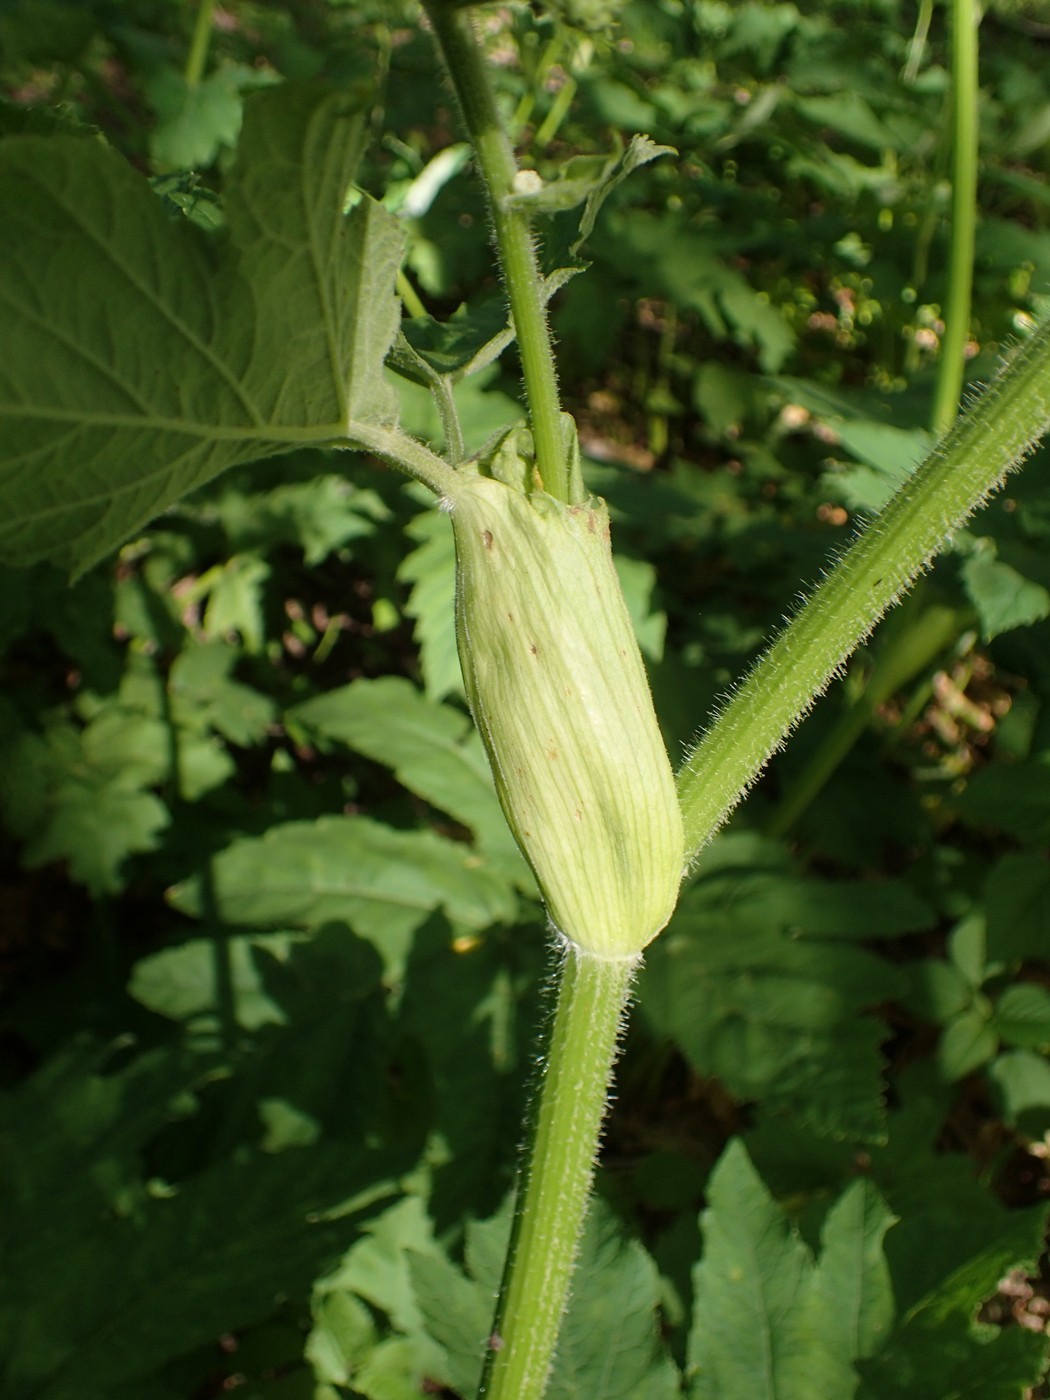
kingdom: Plantae
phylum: Tracheophyta
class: Magnoliopsida
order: Apiales
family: Apiaceae
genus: Heracleum
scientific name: Heracleum maximum
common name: American cow parsnip
